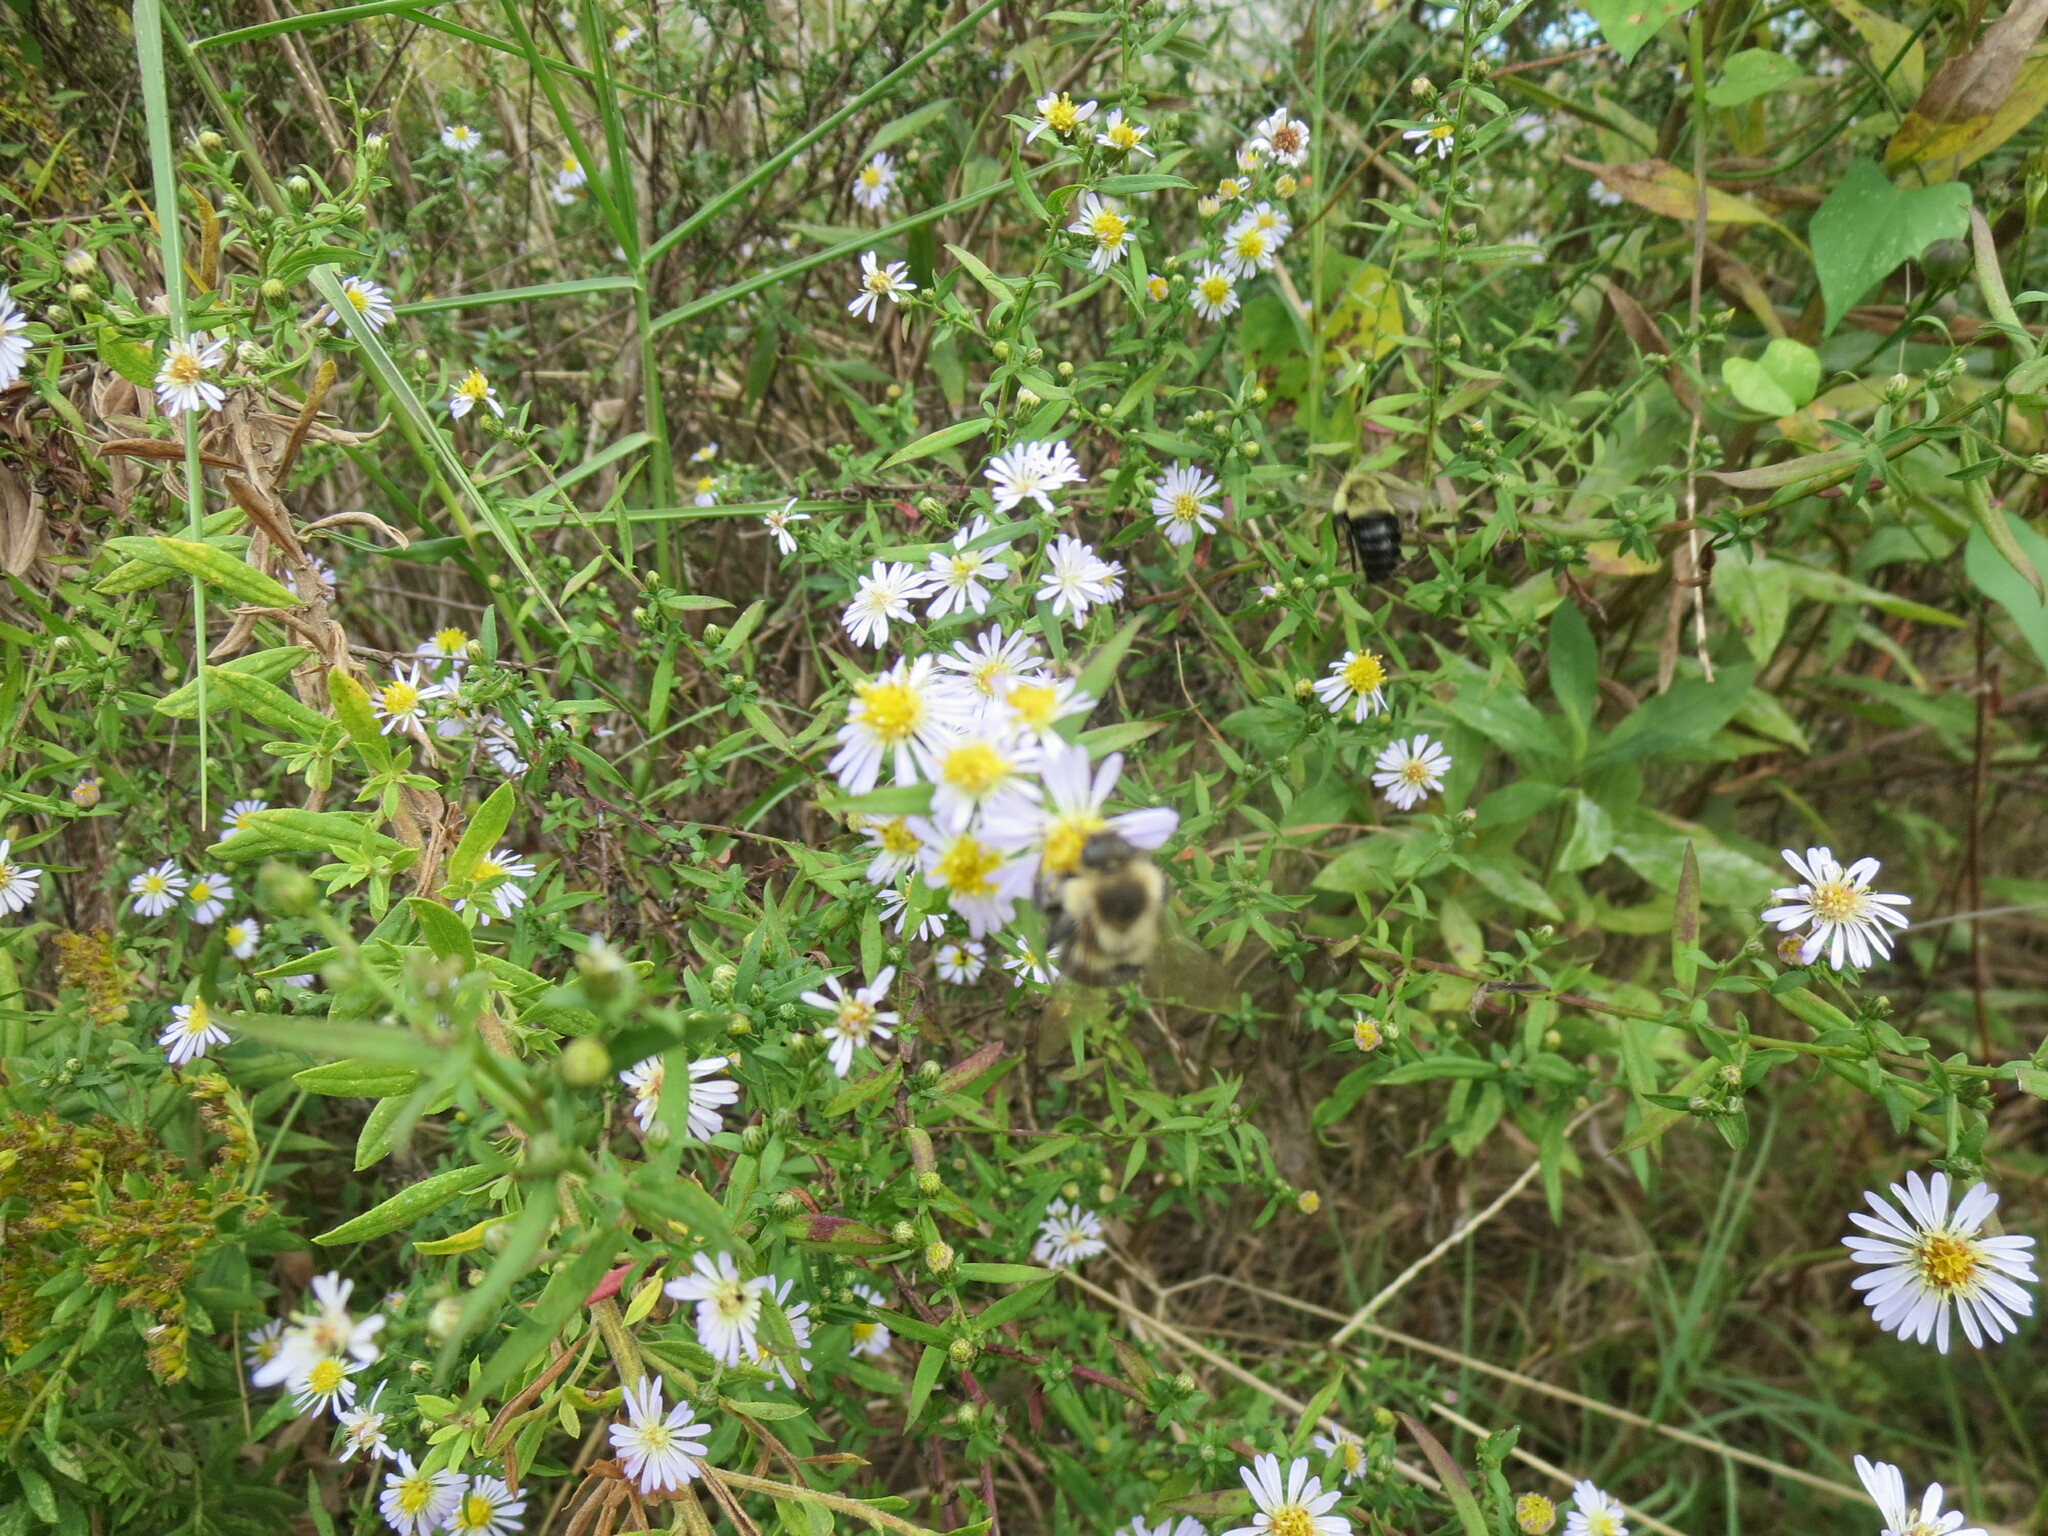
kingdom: Animalia
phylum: Arthropoda
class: Insecta
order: Hymenoptera
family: Apidae
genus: Bombus
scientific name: Bombus impatiens
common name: Common eastern bumble bee
